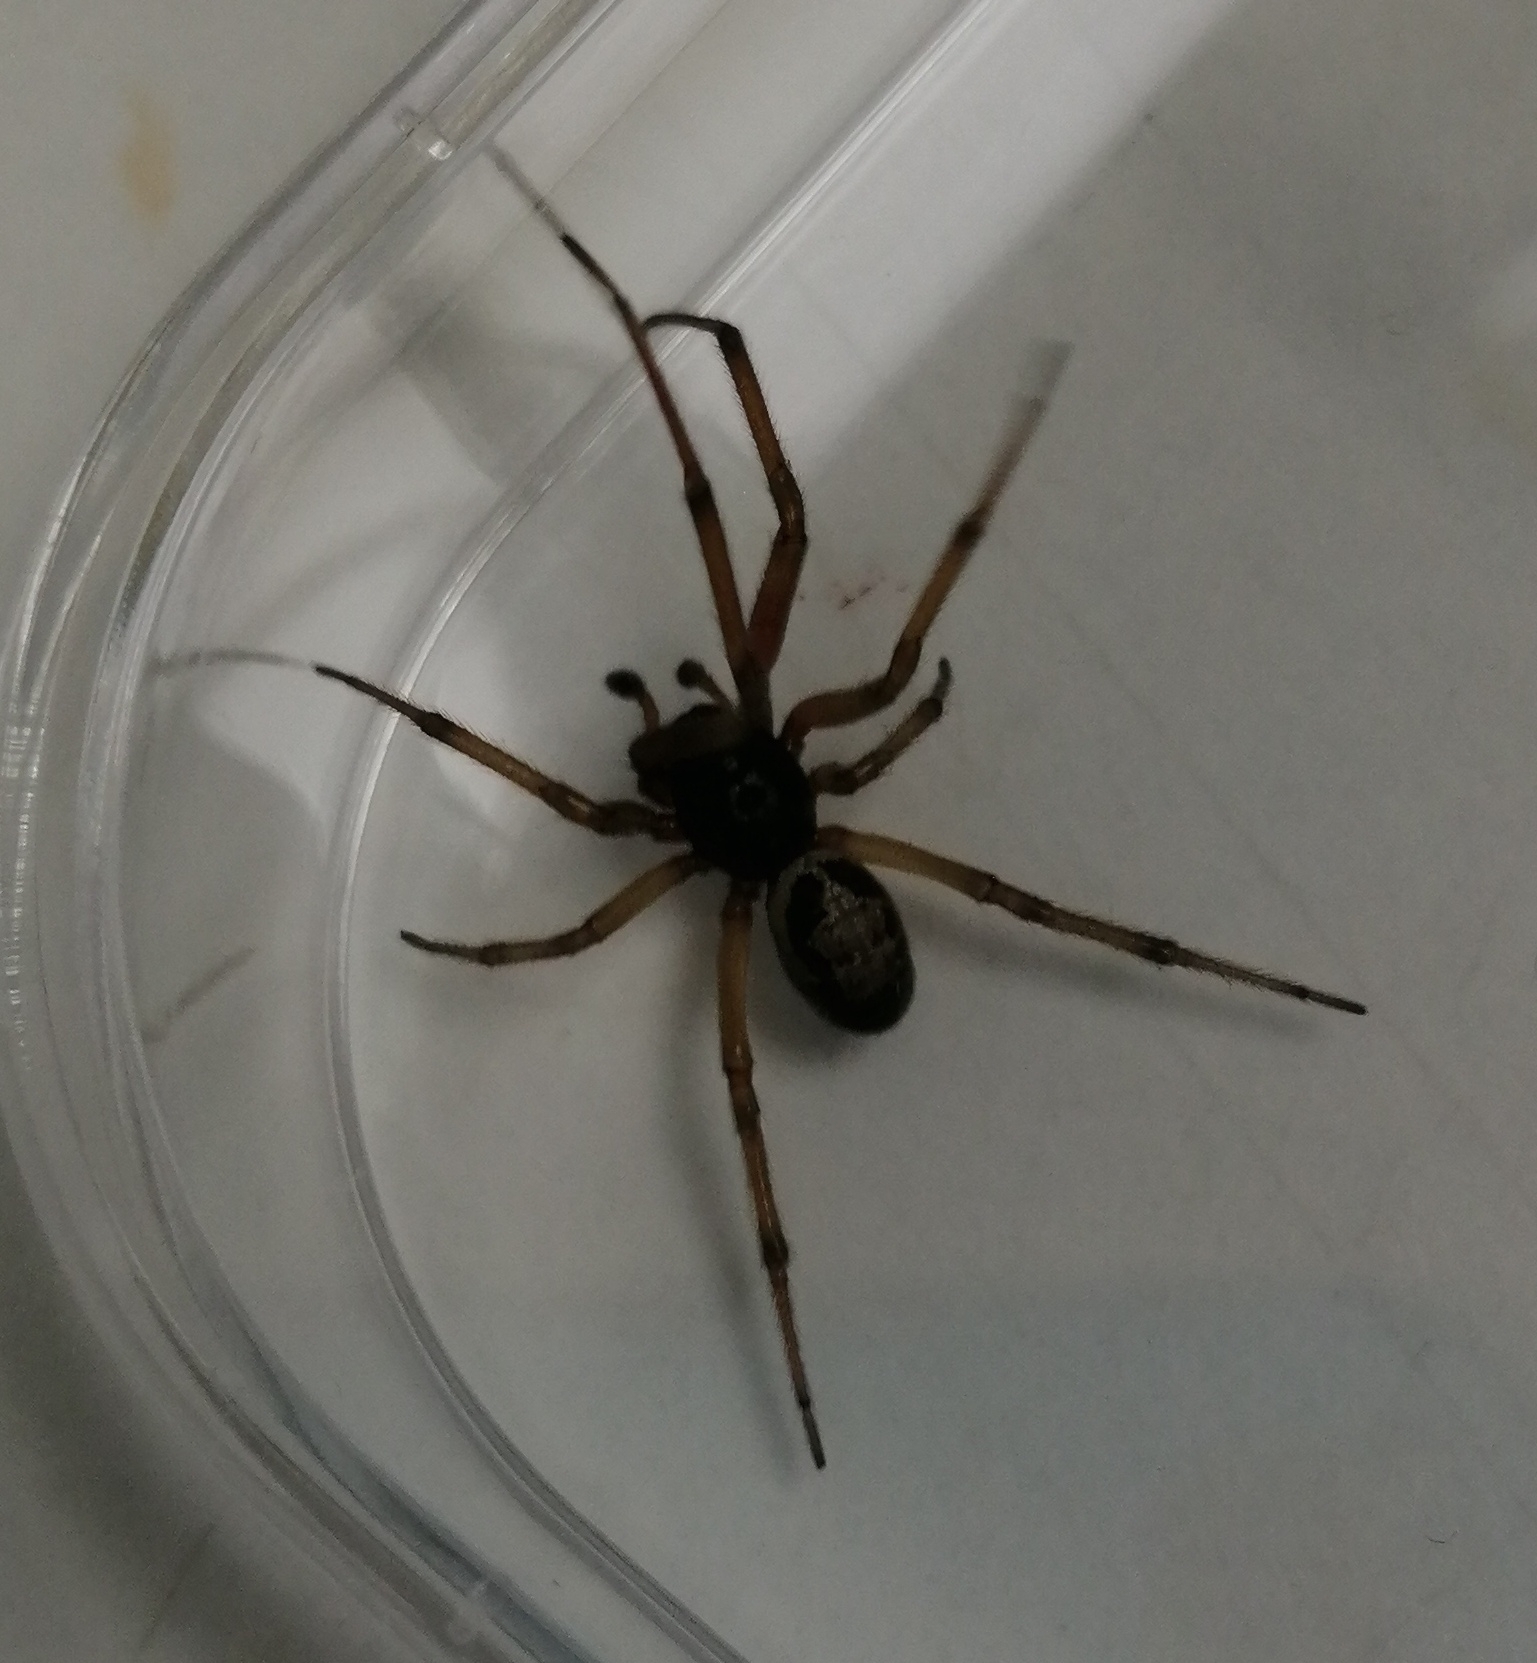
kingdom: Animalia
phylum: Arthropoda
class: Arachnida
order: Araneae
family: Theridiidae
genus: Steatoda
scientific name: Steatoda nobilis
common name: Cobweb weaver
